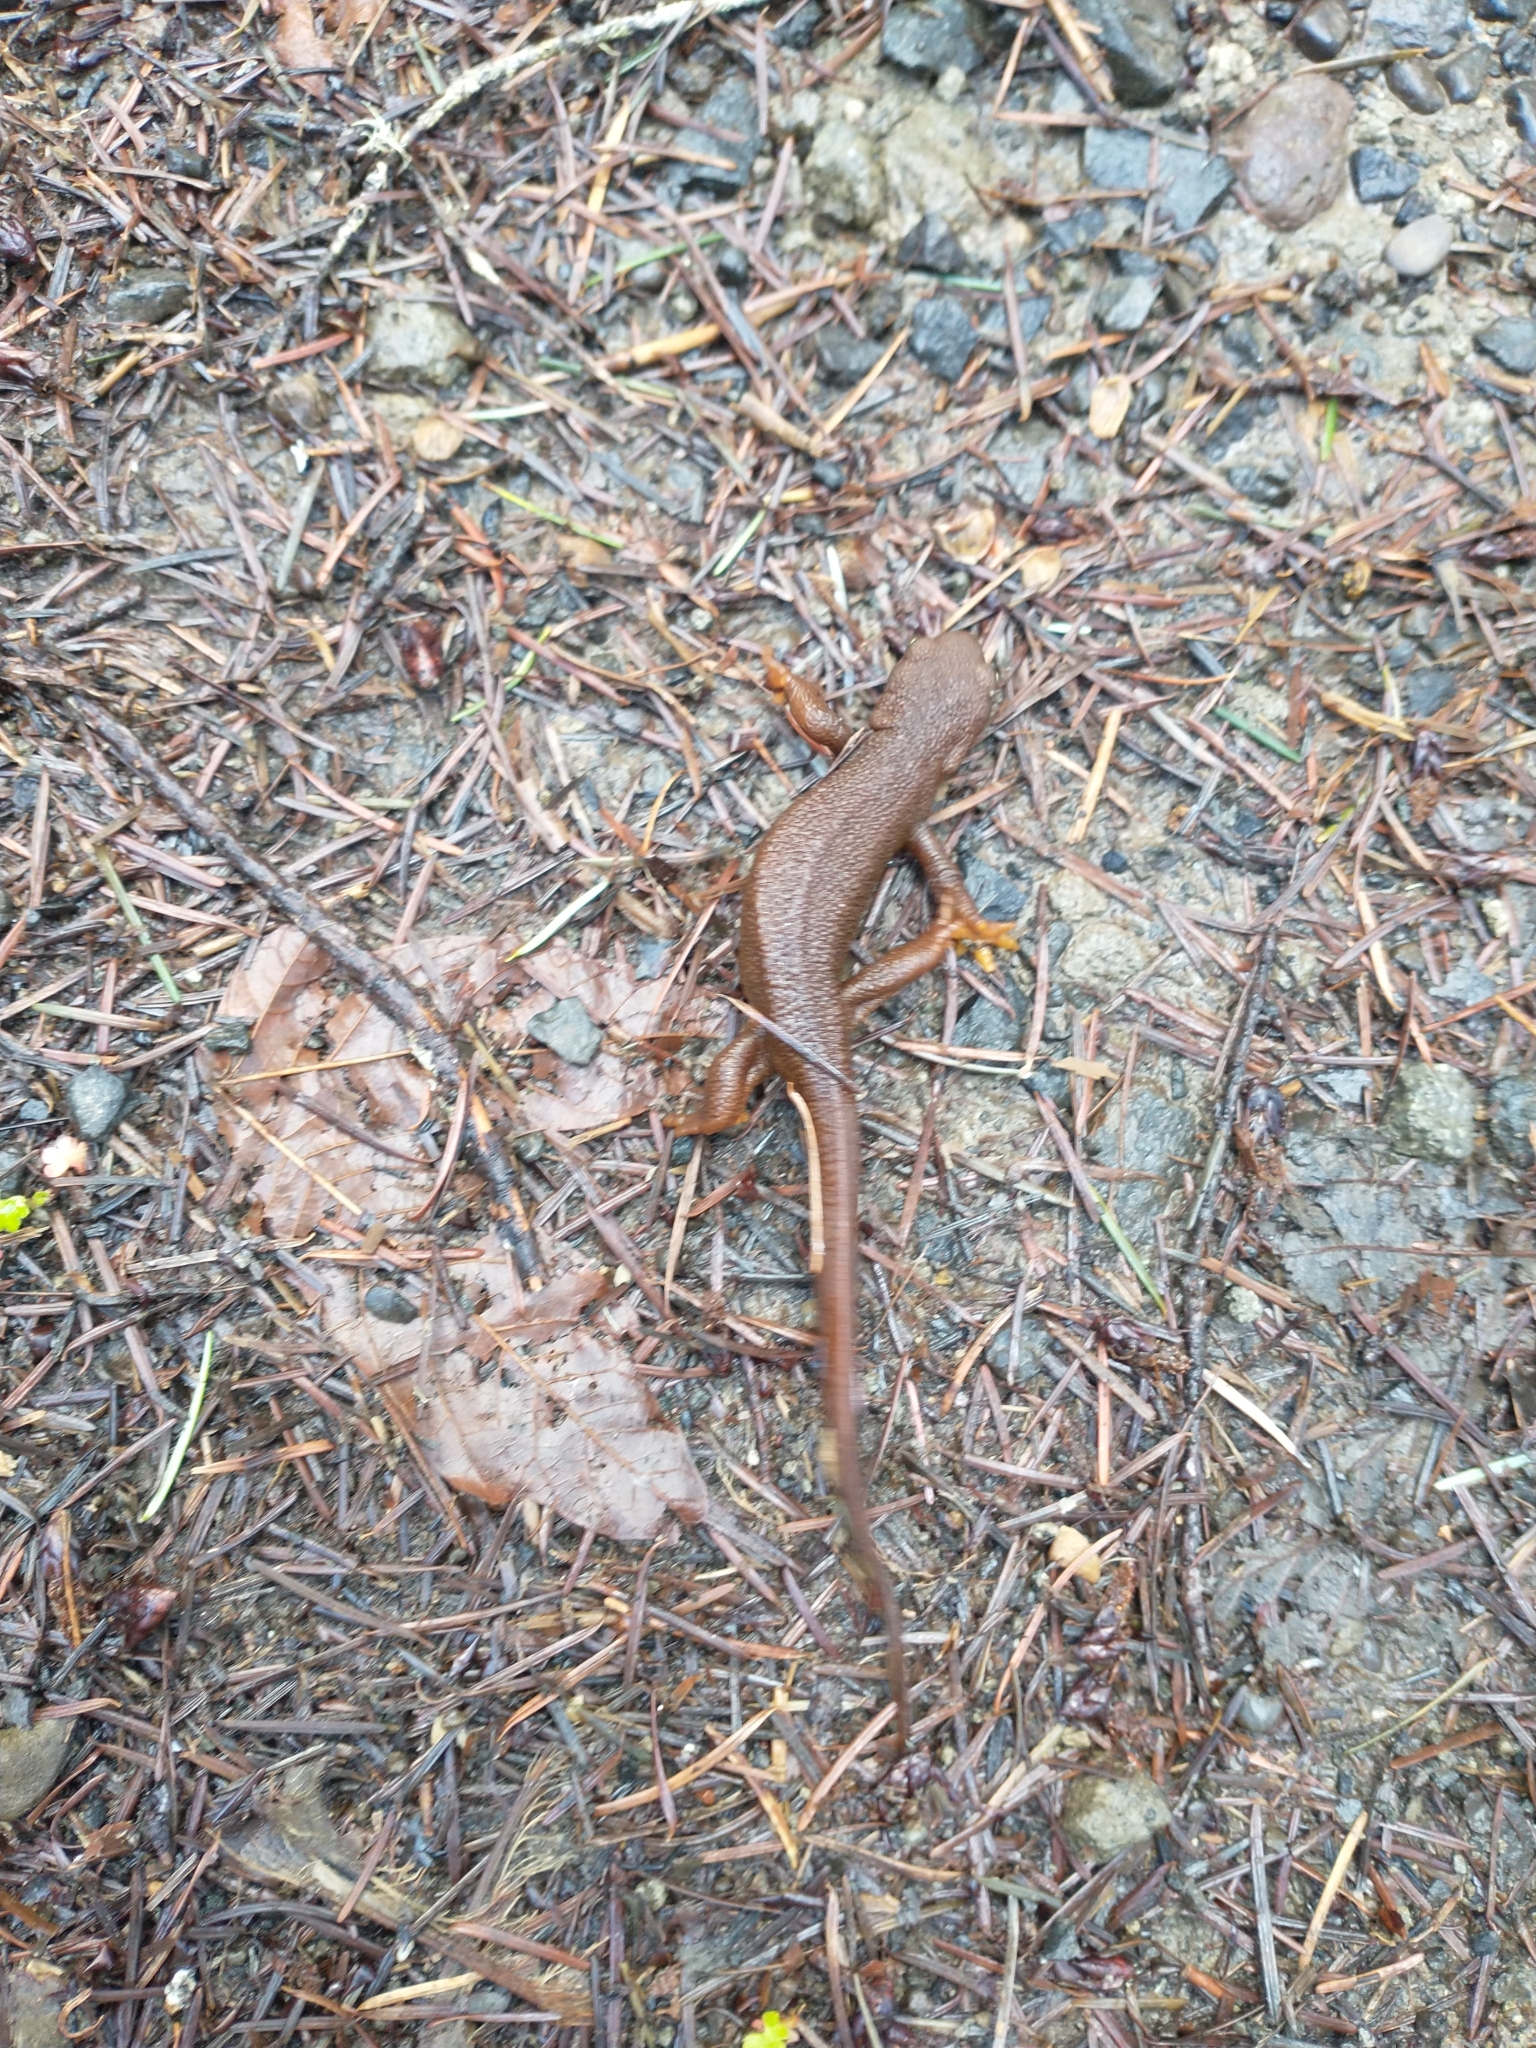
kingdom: Animalia
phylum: Chordata
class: Amphibia
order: Caudata
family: Salamandridae
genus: Taricha
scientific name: Taricha granulosa
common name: Roughskin newt
